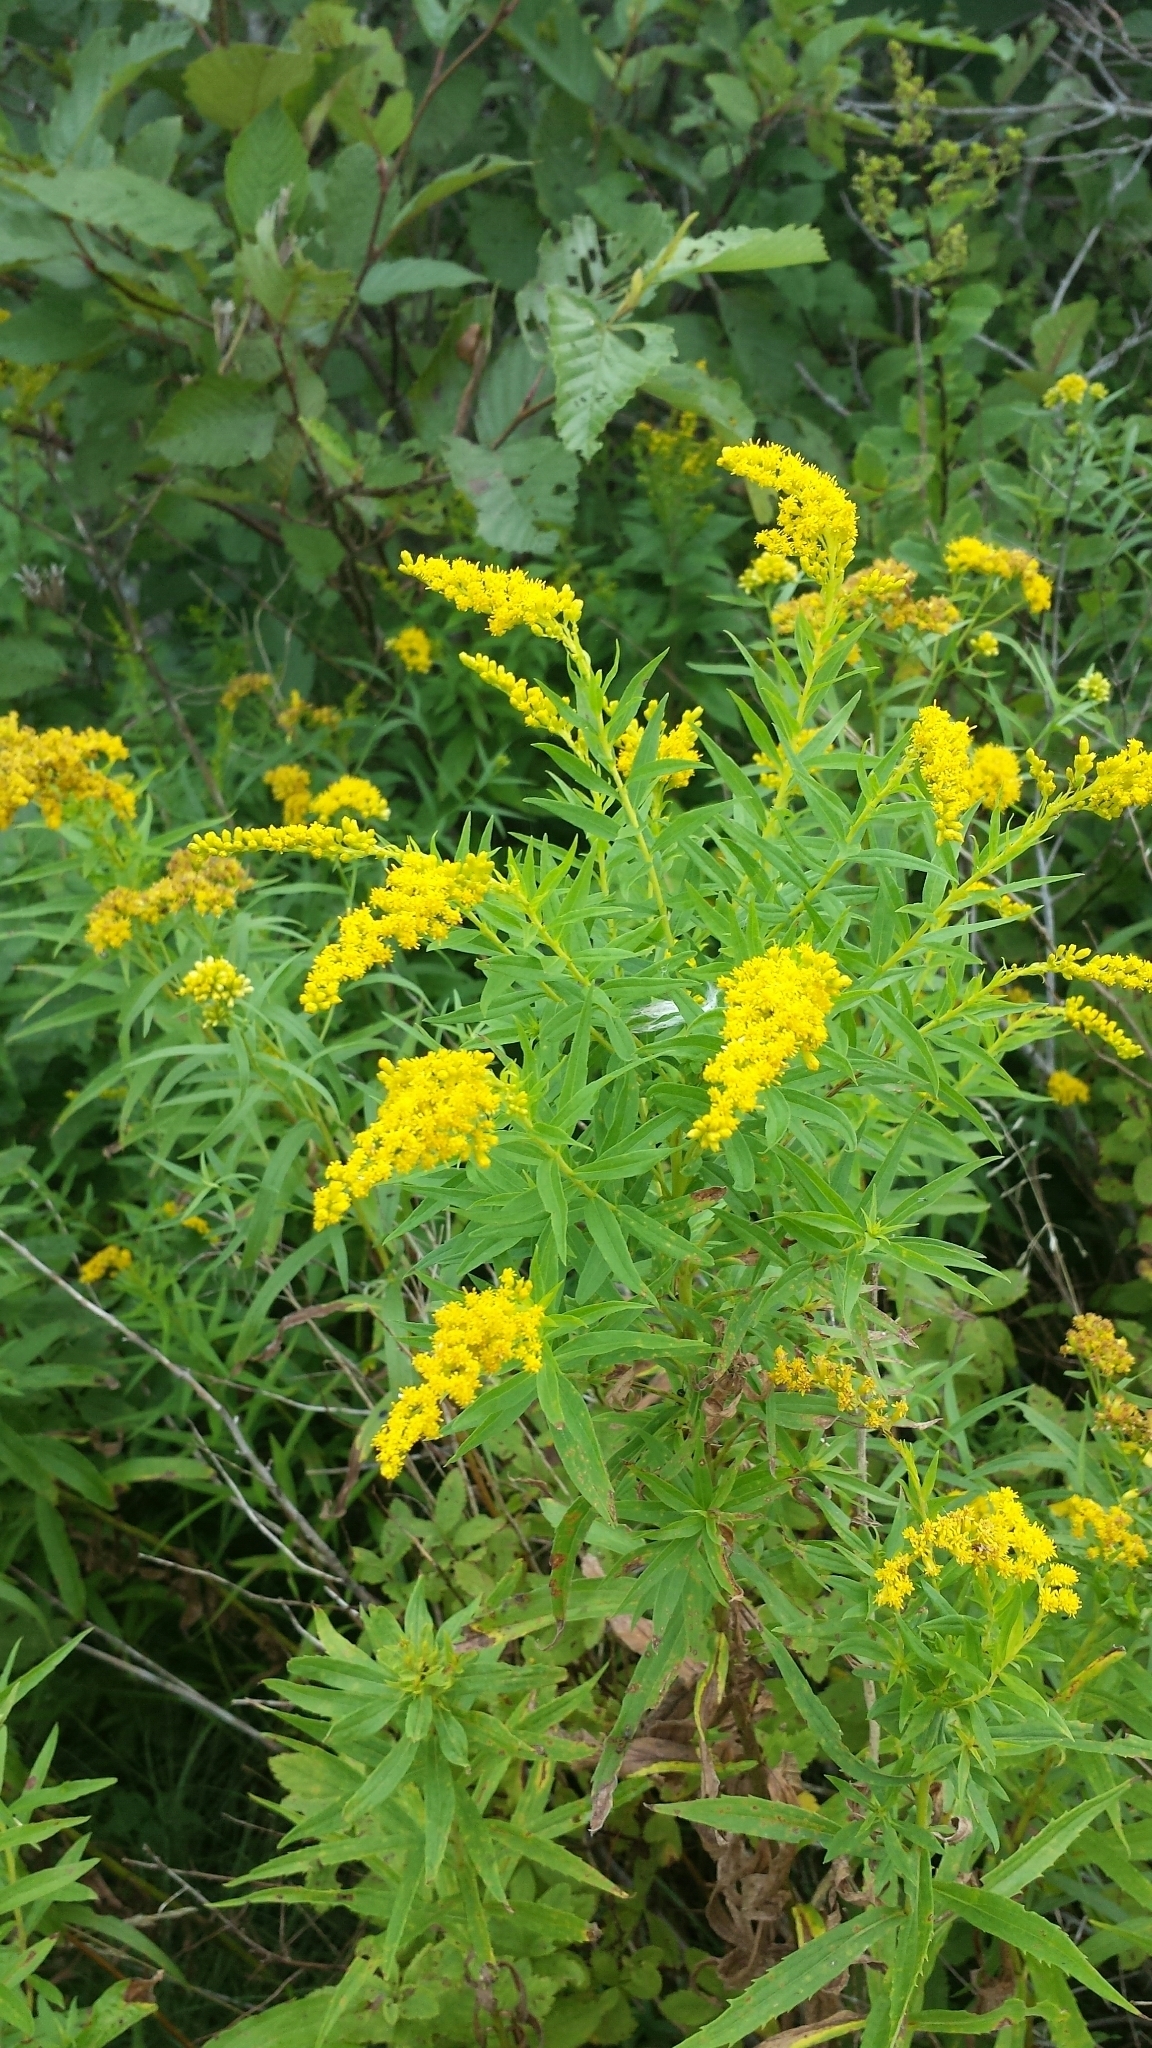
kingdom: Plantae
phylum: Tracheophyta
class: Magnoliopsida
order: Asterales
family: Asteraceae
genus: Solidago
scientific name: Solidago canadensis
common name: Canada goldenrod
